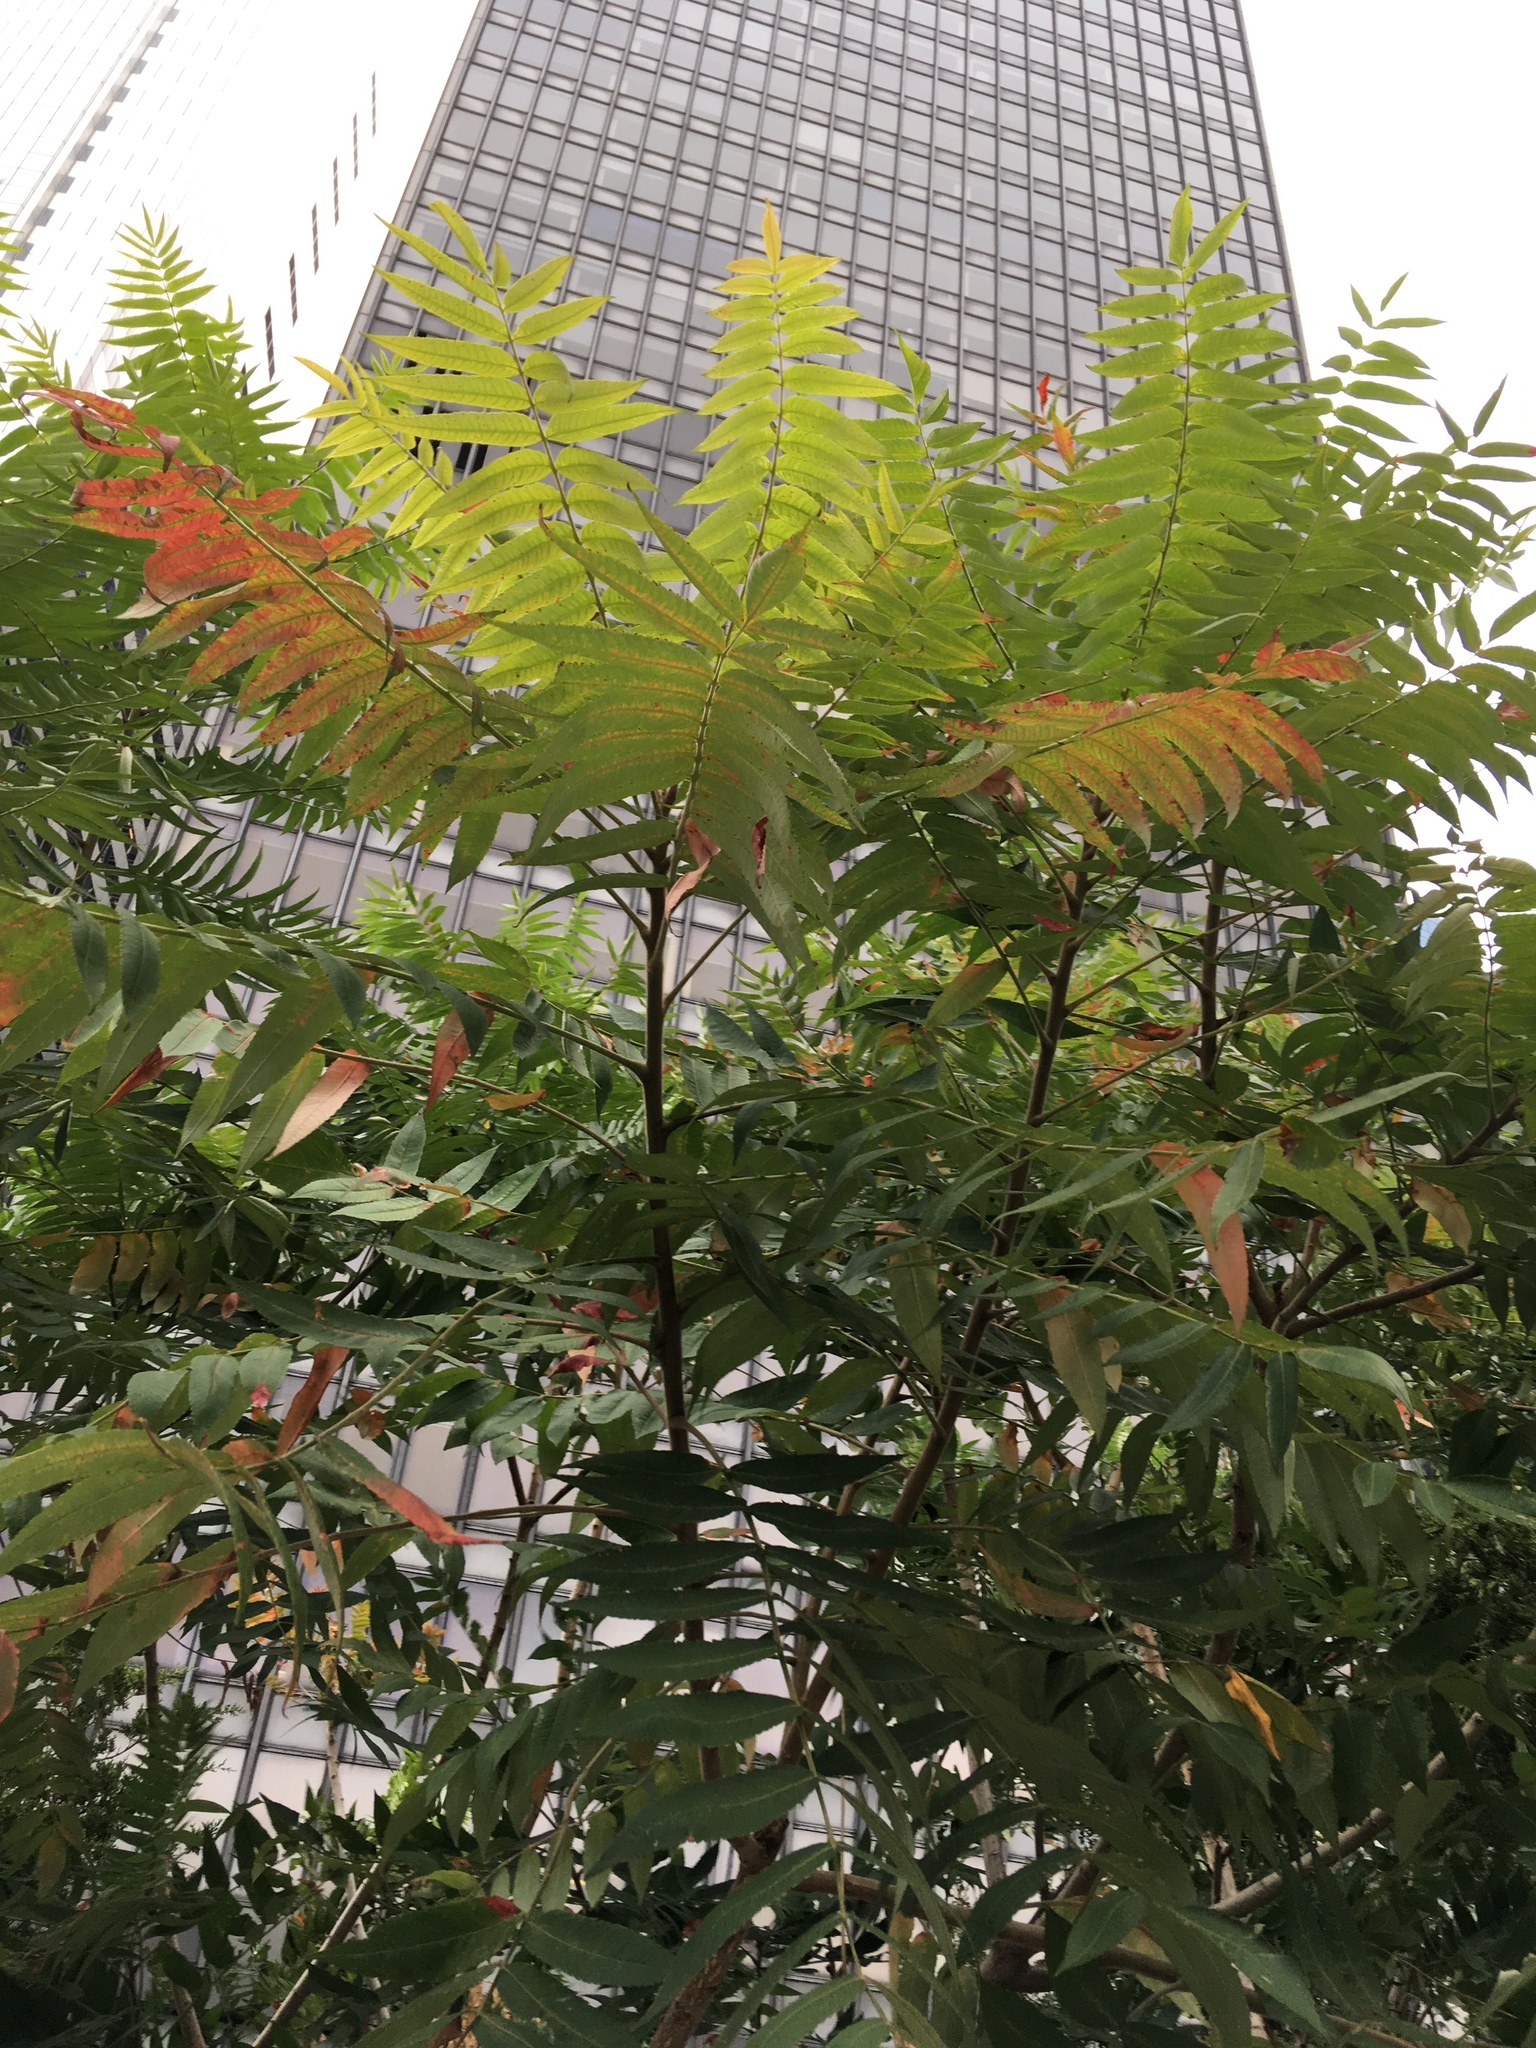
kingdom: Plantae
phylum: Tracheophyta
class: Magnoliopsida
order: Sapindales
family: Anacardiaceae
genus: Rhus
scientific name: Rhus typhina
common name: Staghorn sumac
